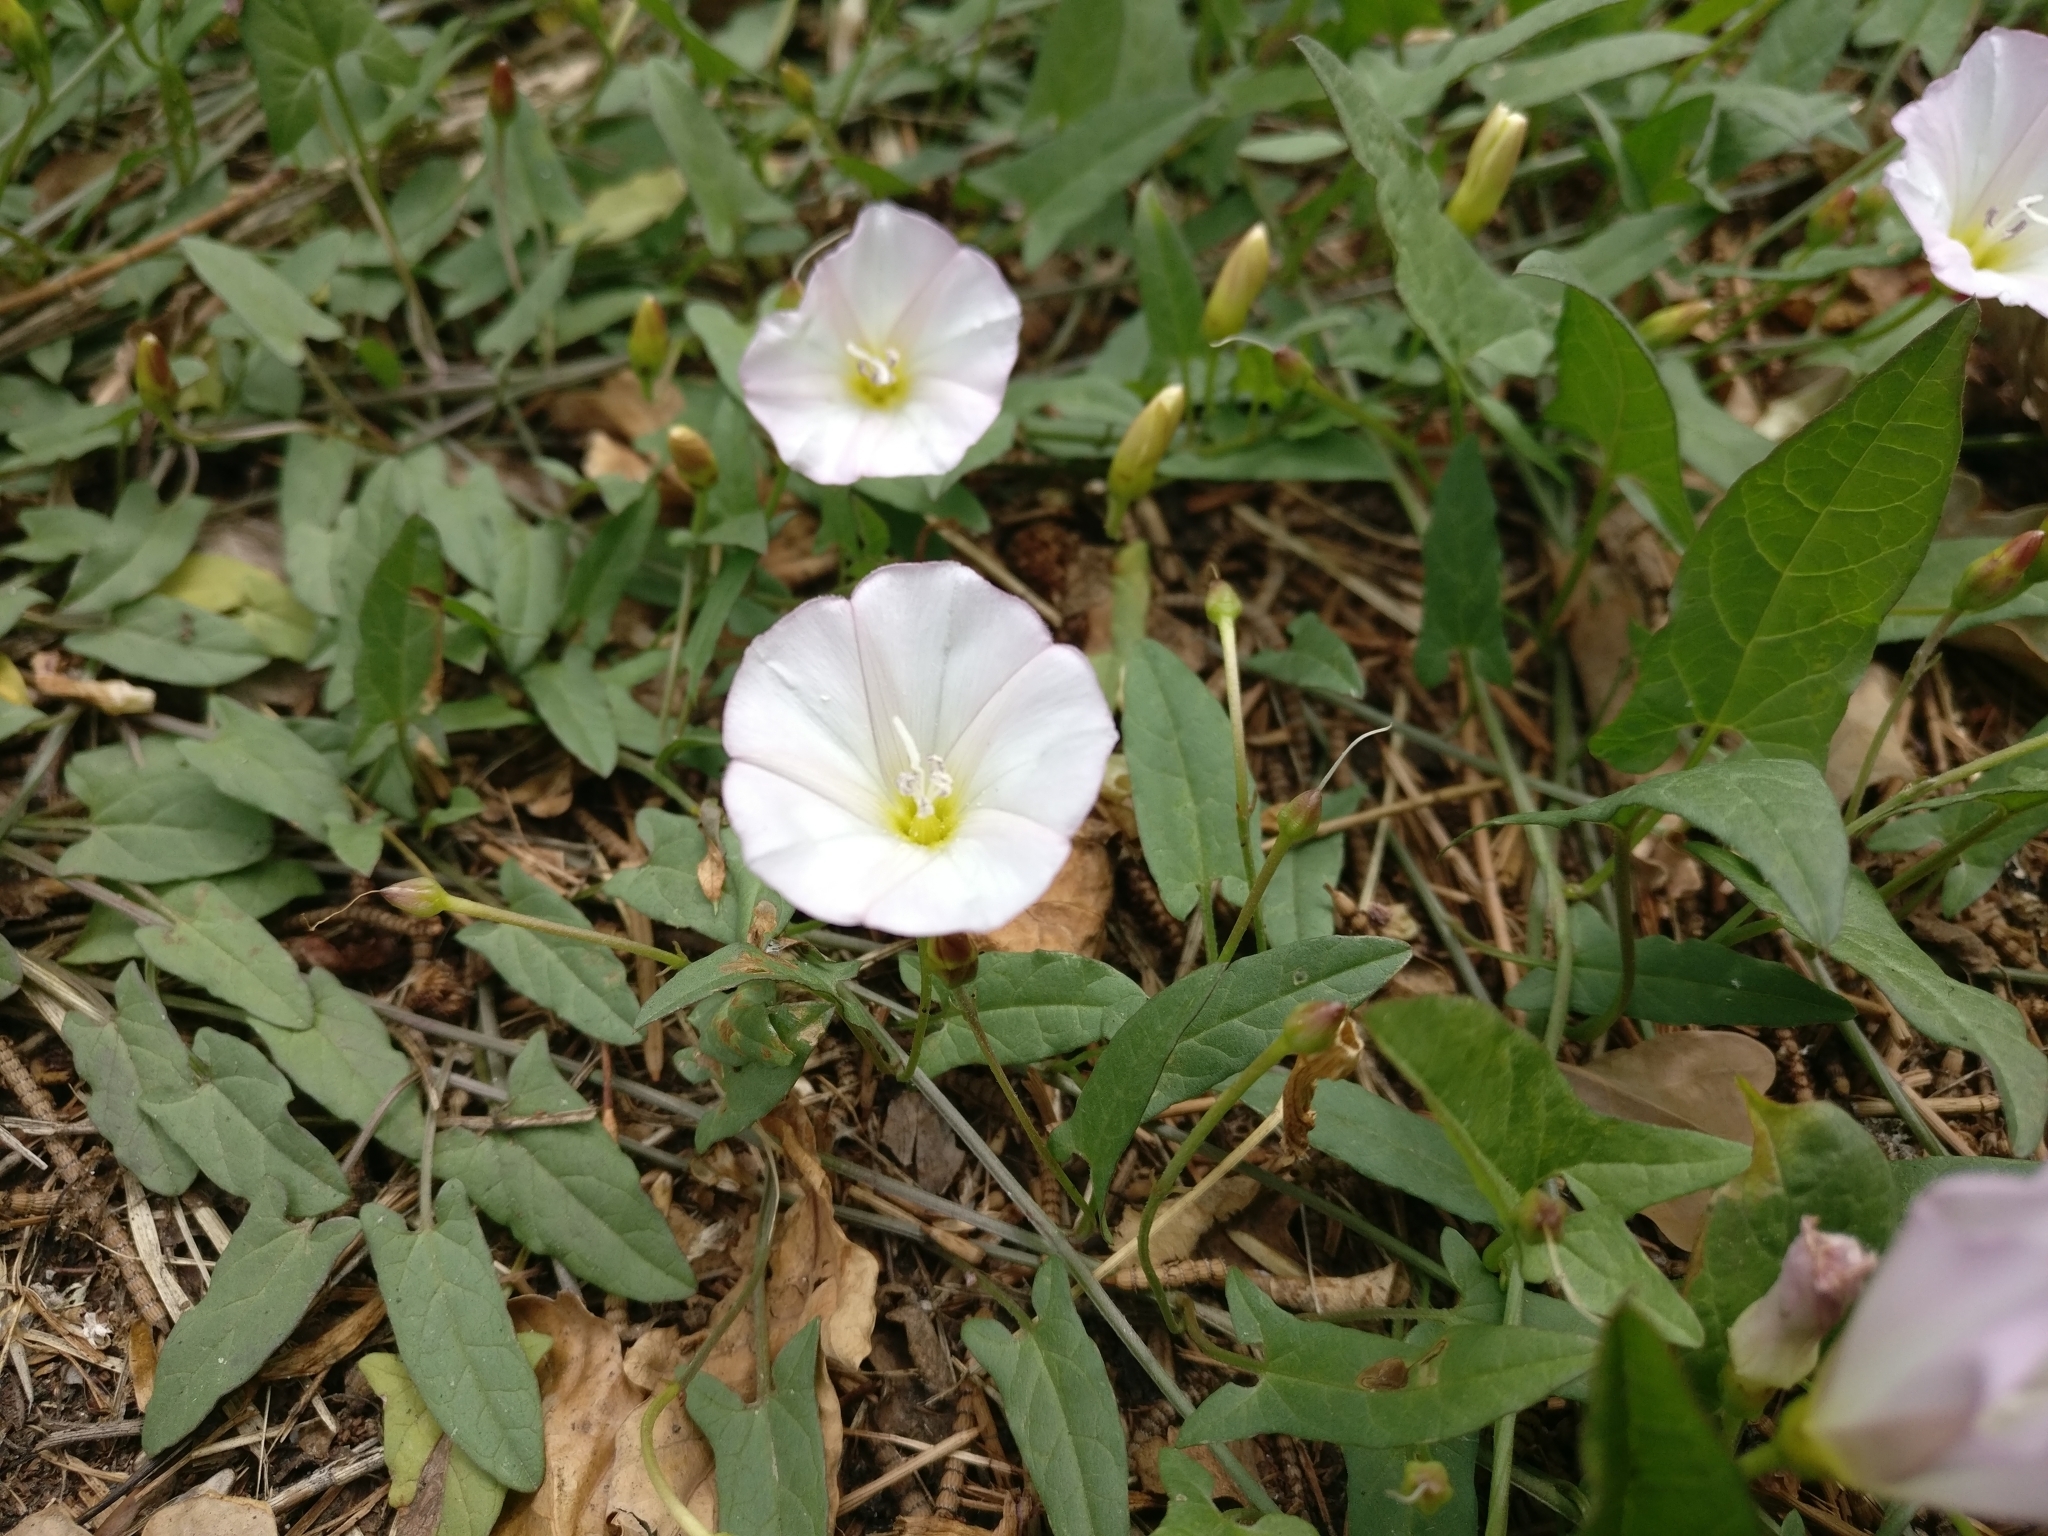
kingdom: Plantae
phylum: Tracheophyta
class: Magnoliopsida
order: Solanales
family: Convolvulaceae
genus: Convolvulus
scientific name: Convolvulus arvensis
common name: Field bindweed
